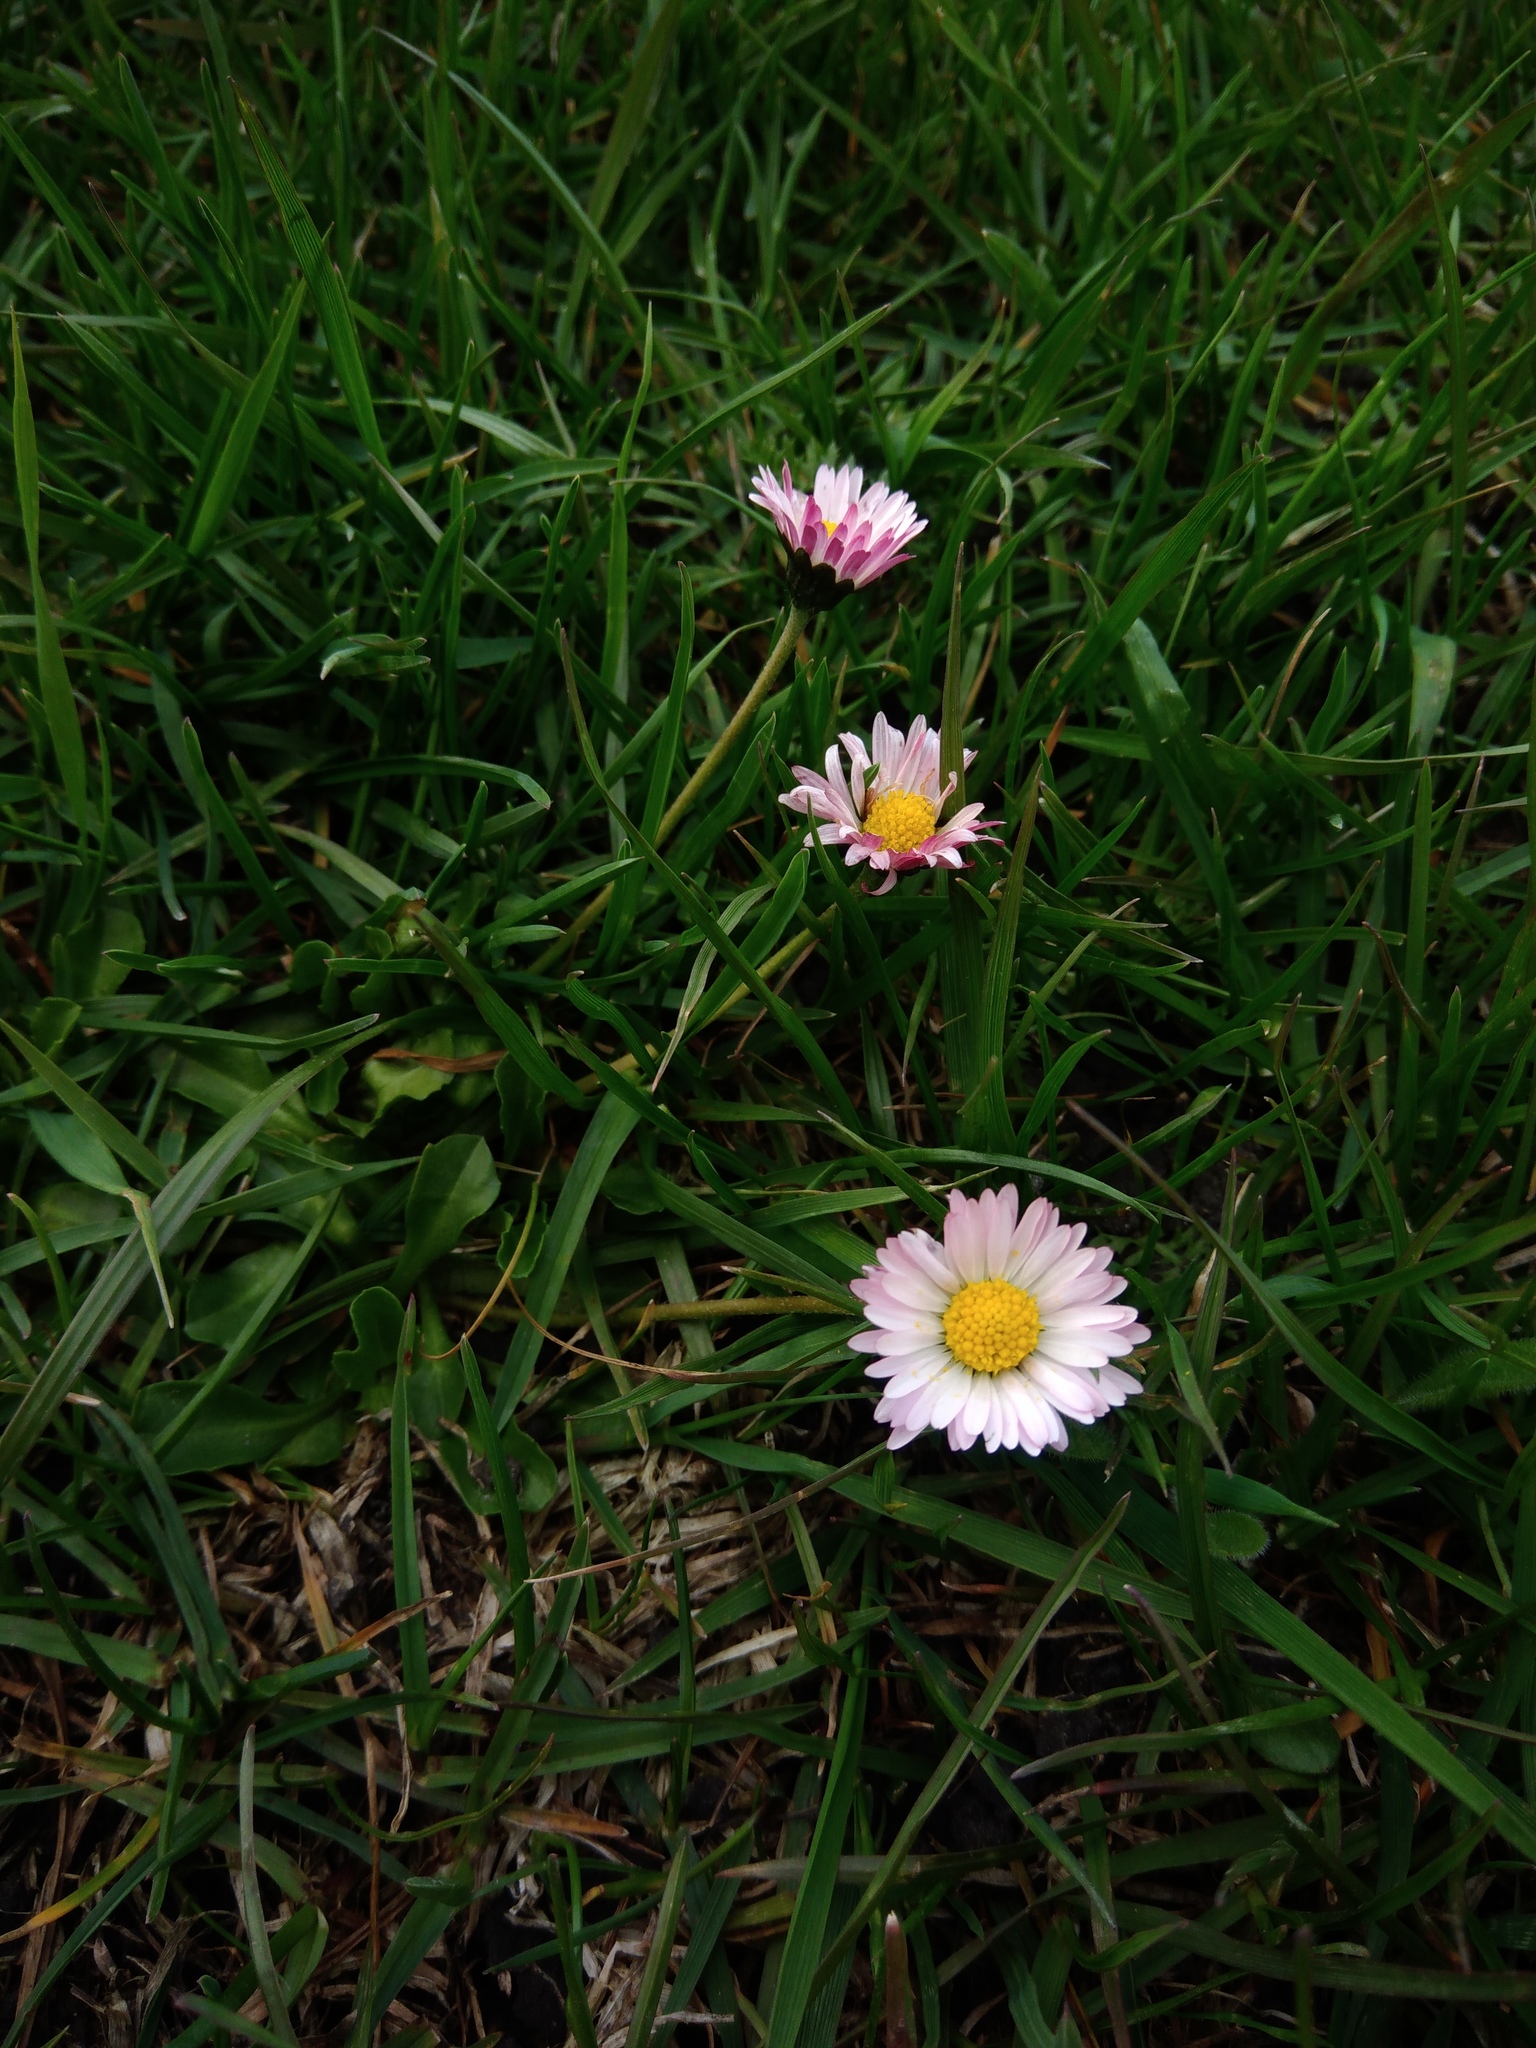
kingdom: Plantae
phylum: Tracheophyta
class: Magnoliopsida
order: Asterales
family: Asteraceae
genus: Bellis
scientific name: Bellis perennis
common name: Lawndaisy
